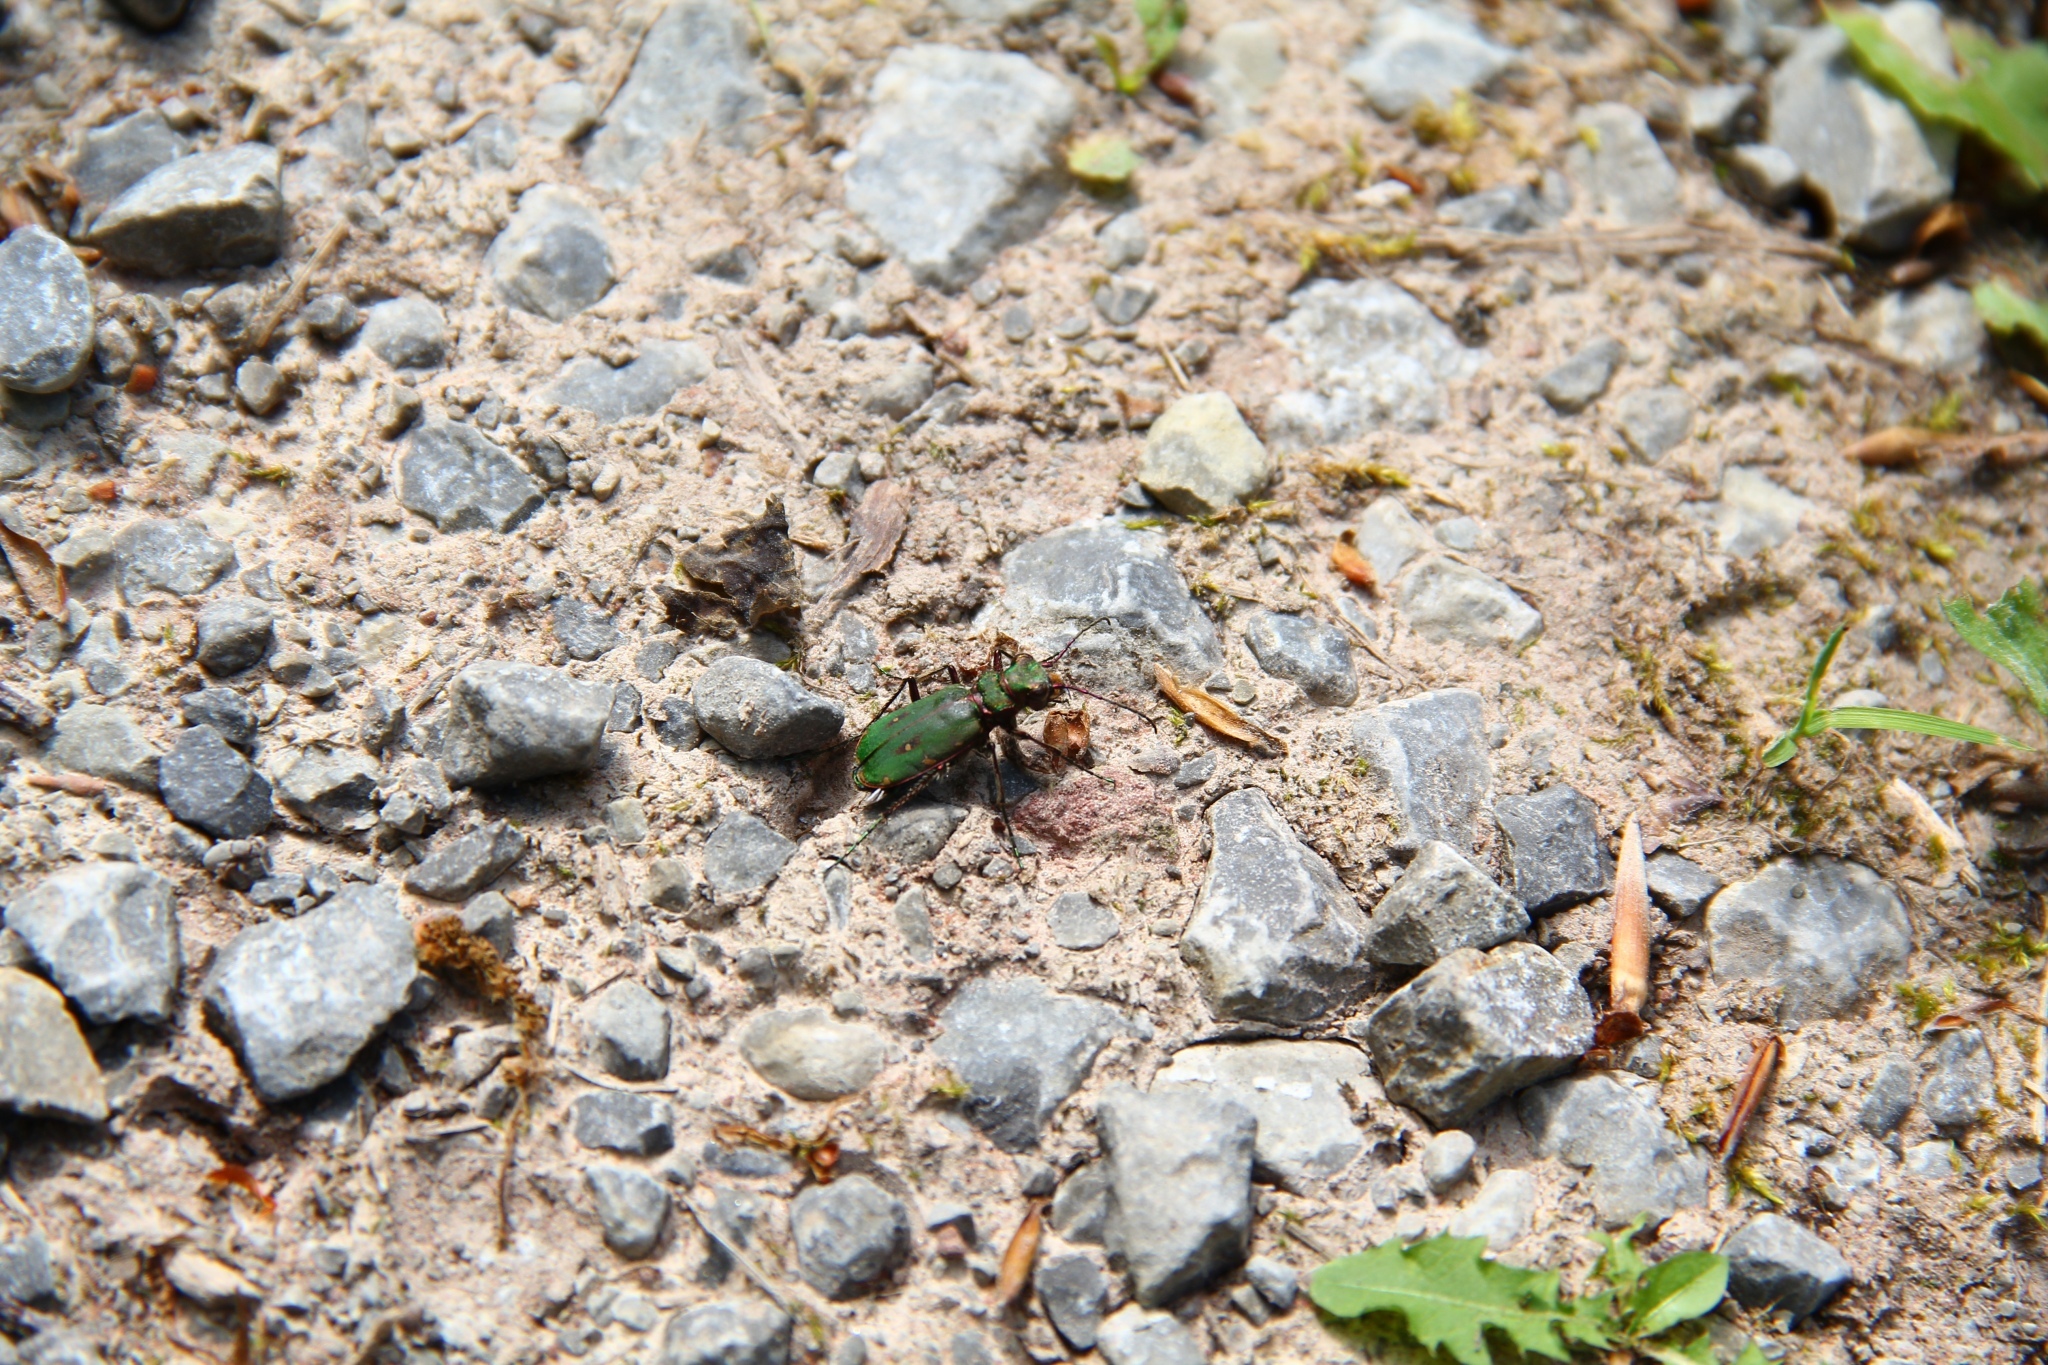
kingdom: Animalia
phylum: Arthropoda
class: Insecta
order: Coleoptera
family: Carabidae
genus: Cicindela
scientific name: Cicindela campestris
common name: Common tiger beetle
